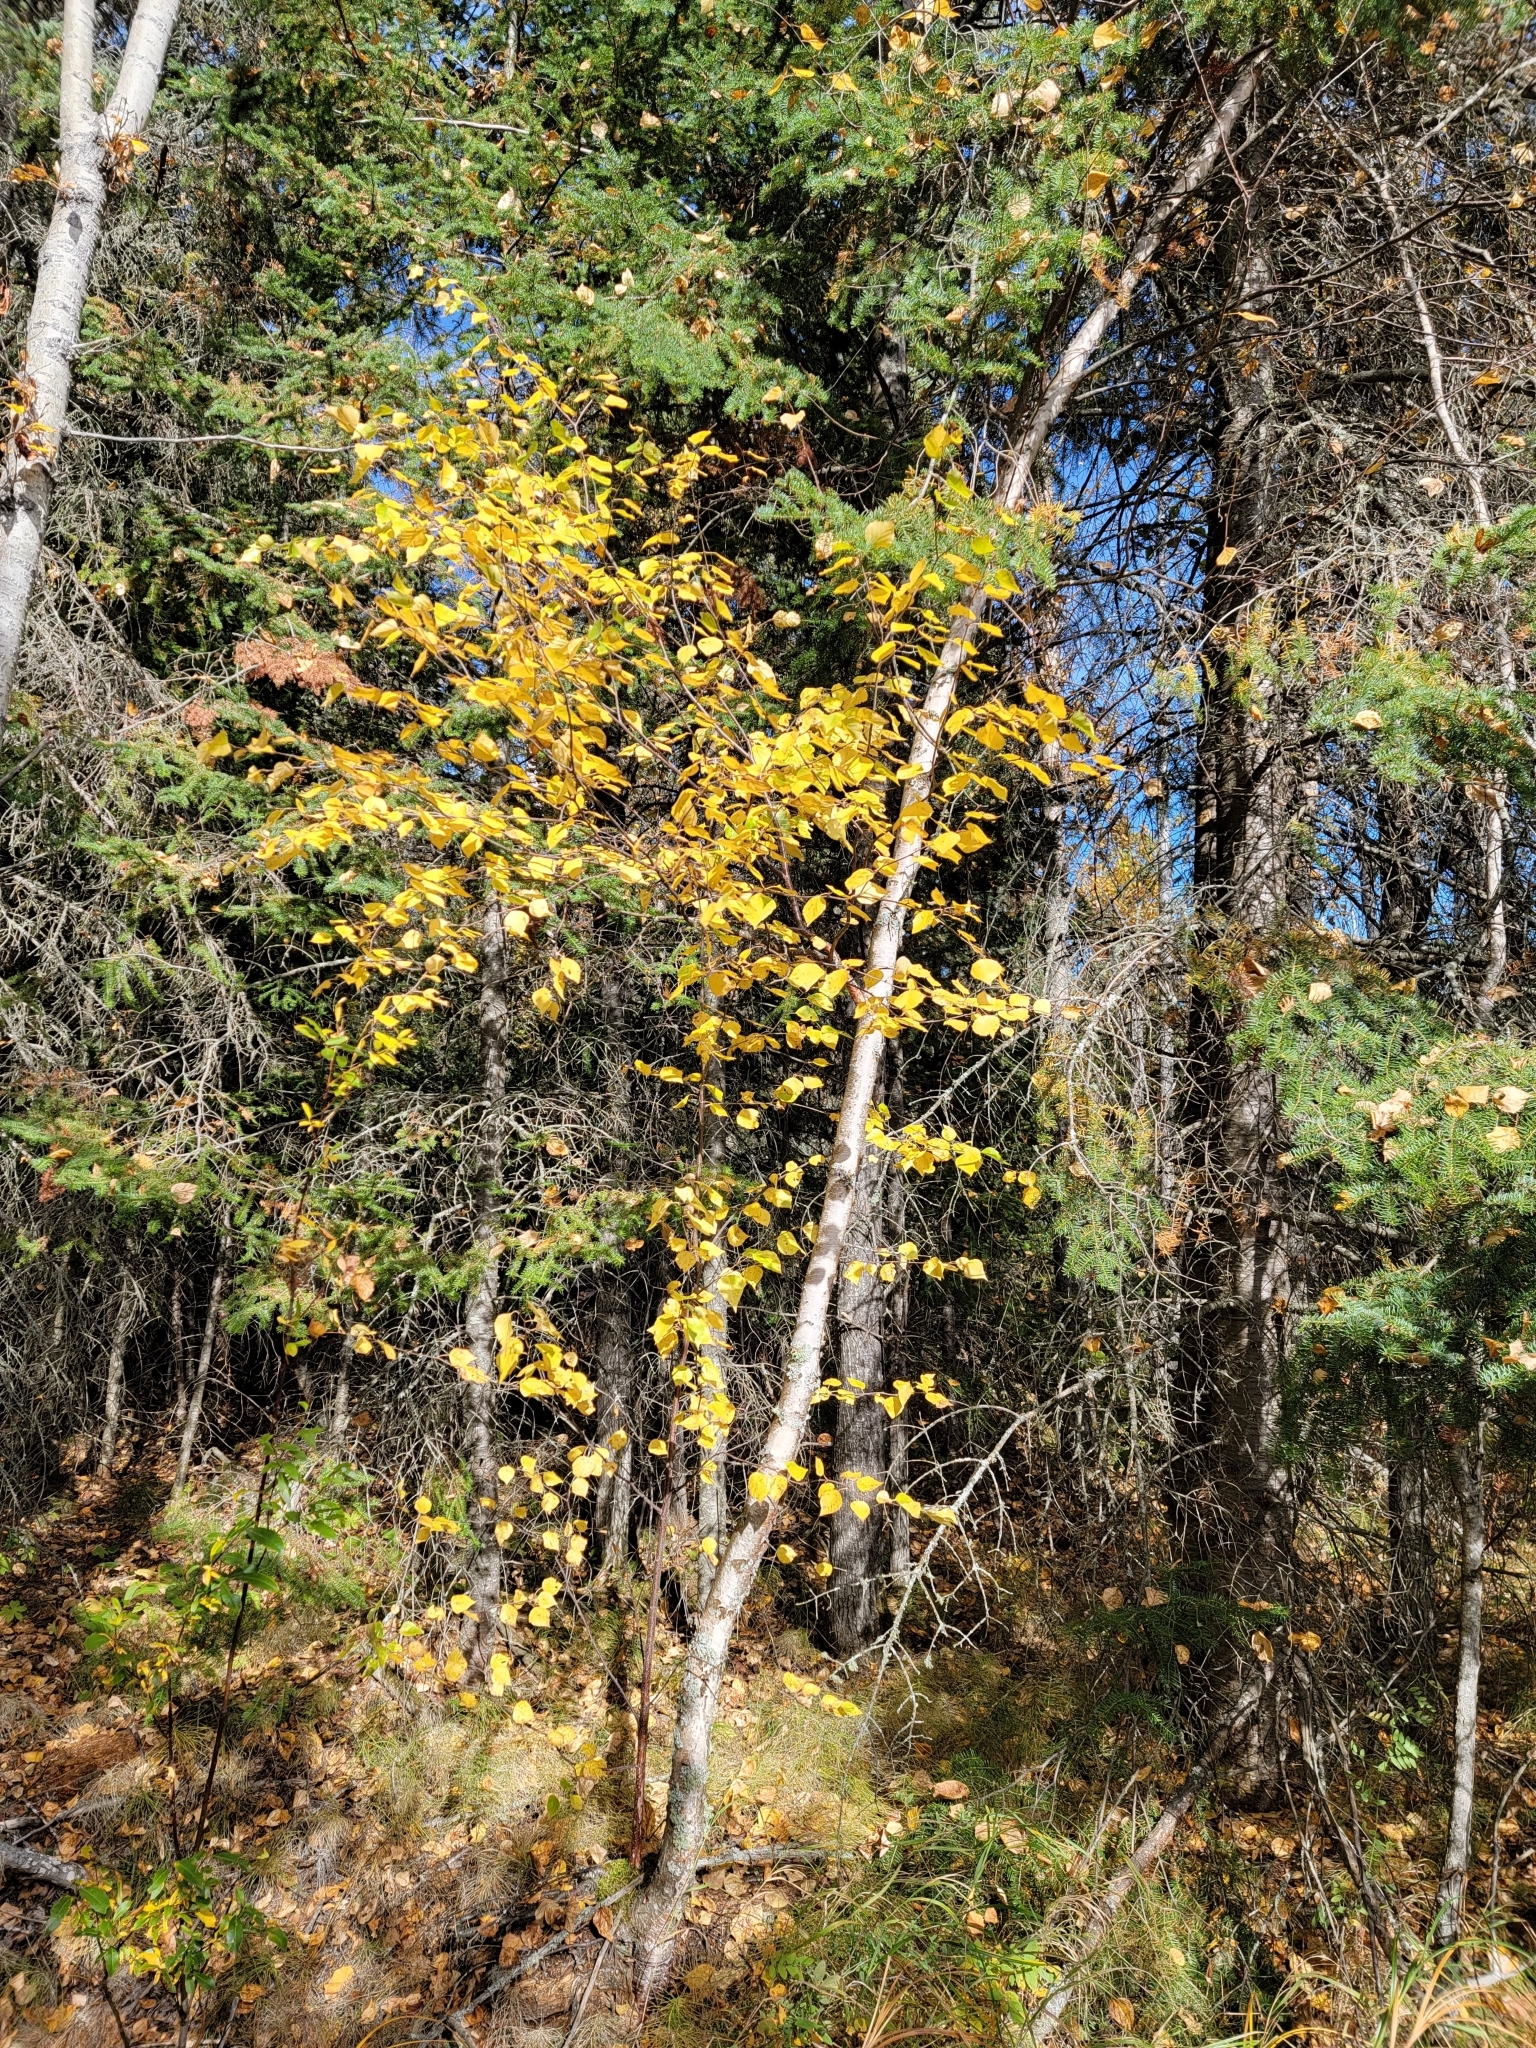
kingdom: Plantae
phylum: Tracheophyta
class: Magnoliopsida
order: Fagales
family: Betulaceae
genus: Betula
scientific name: Betula papyrifera
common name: Paper birch
